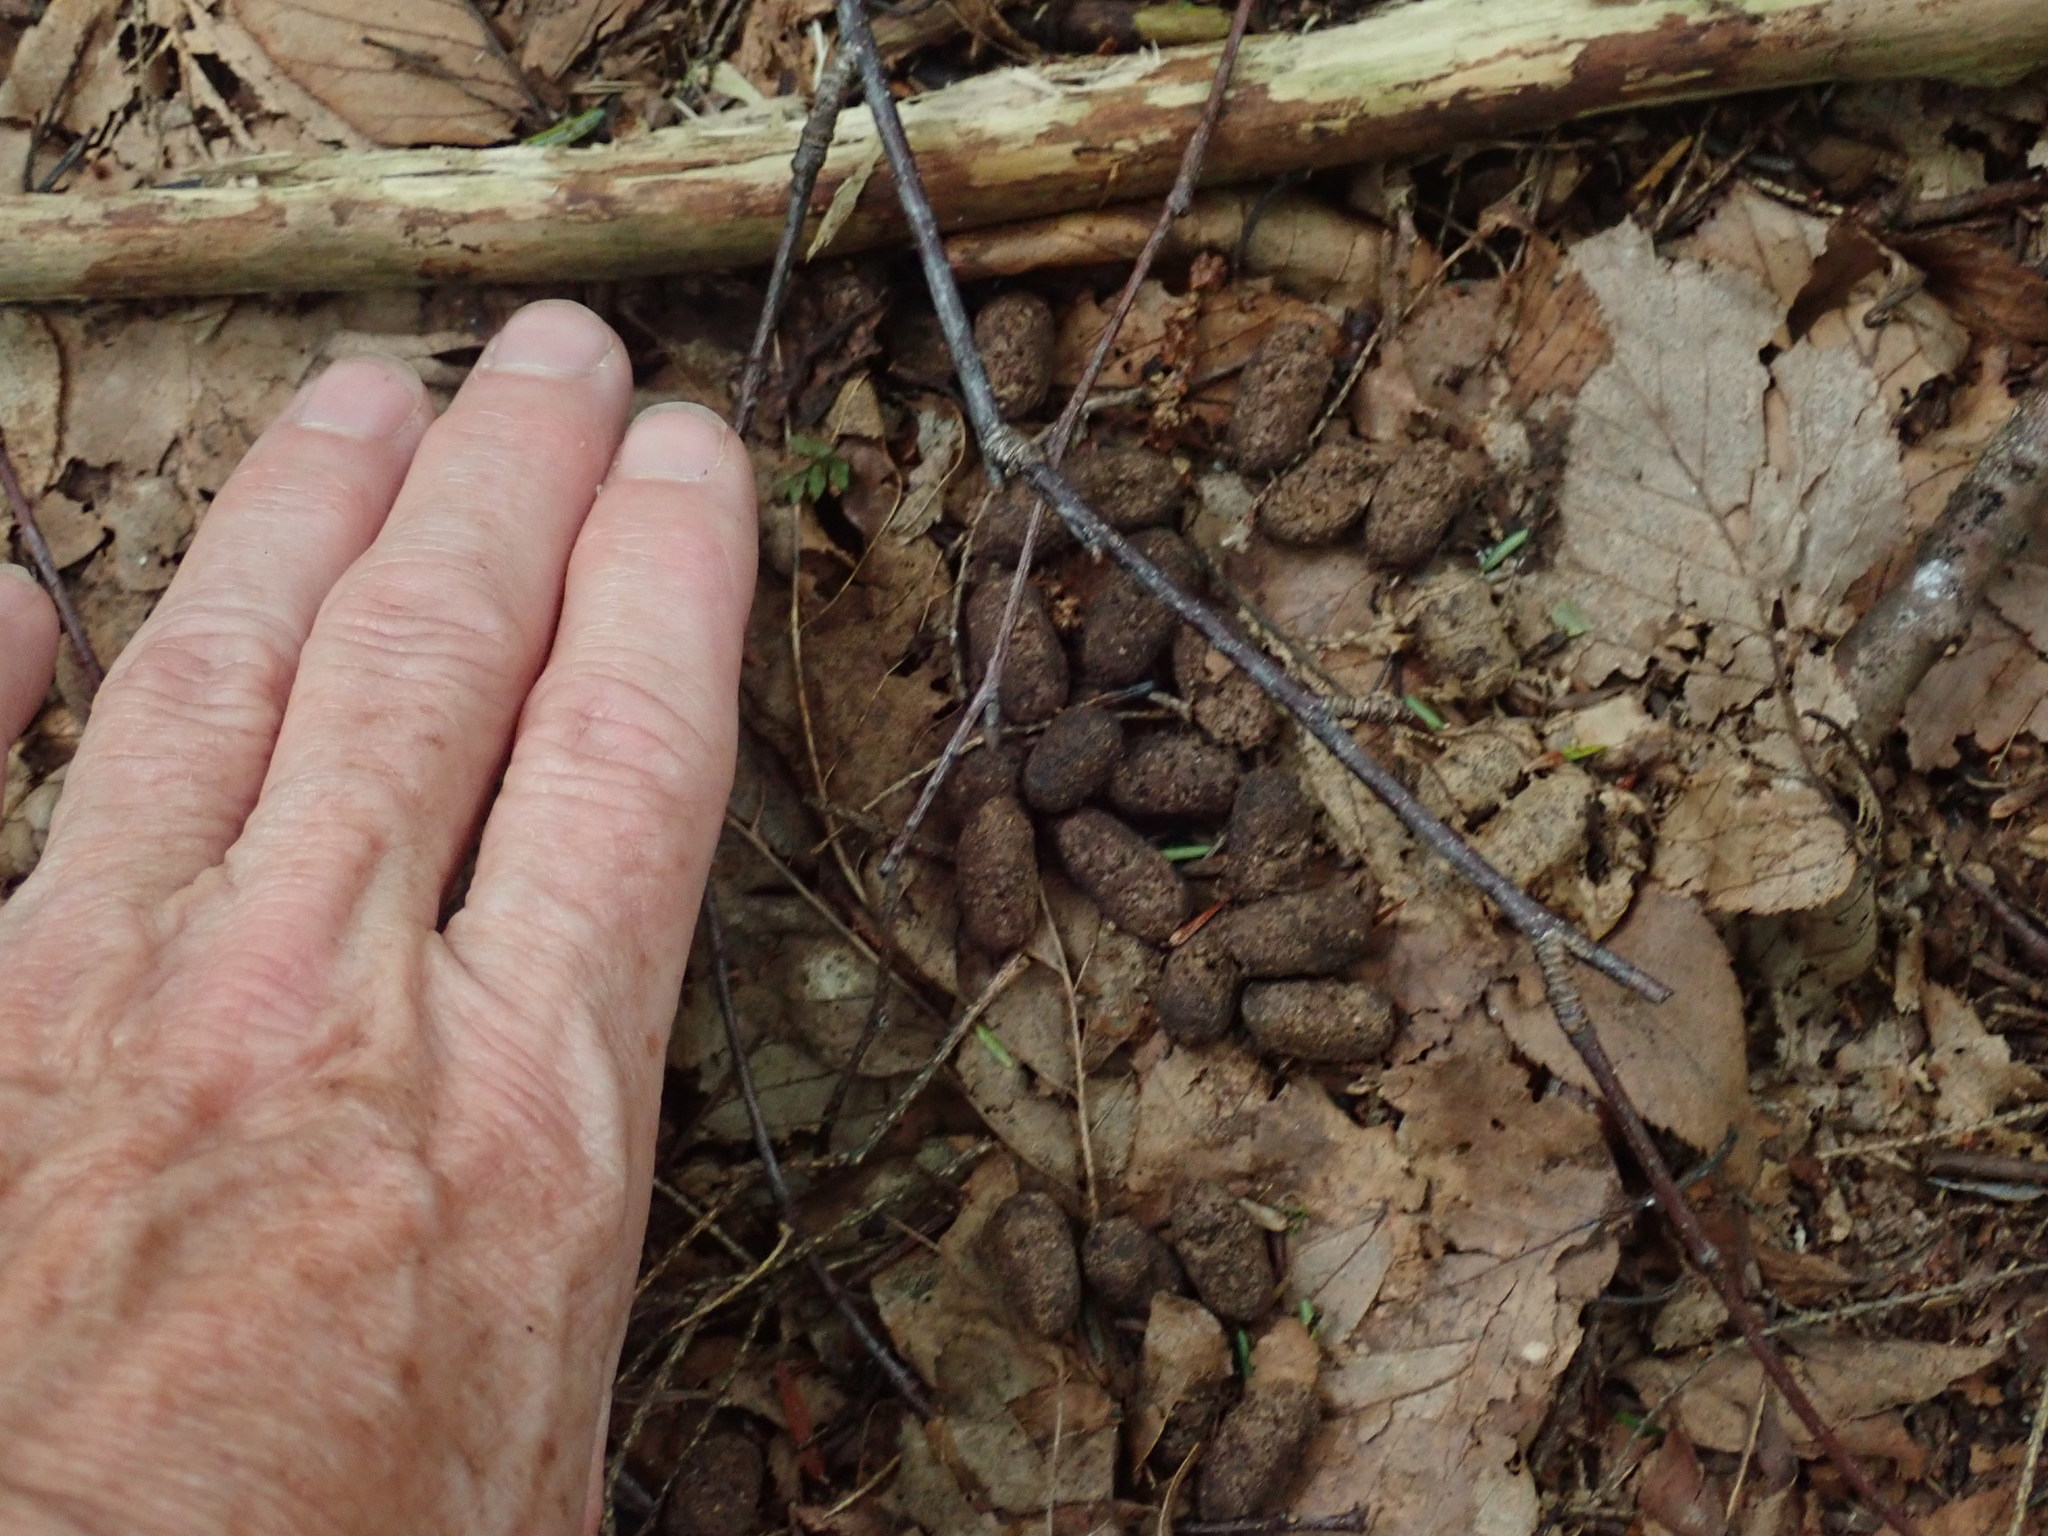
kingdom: Animalia
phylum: Chordata
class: Mammalia
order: Artiodactyla
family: Cervidae
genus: Odocoileus
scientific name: Odocoileus virginianus
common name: White-tailed deer
